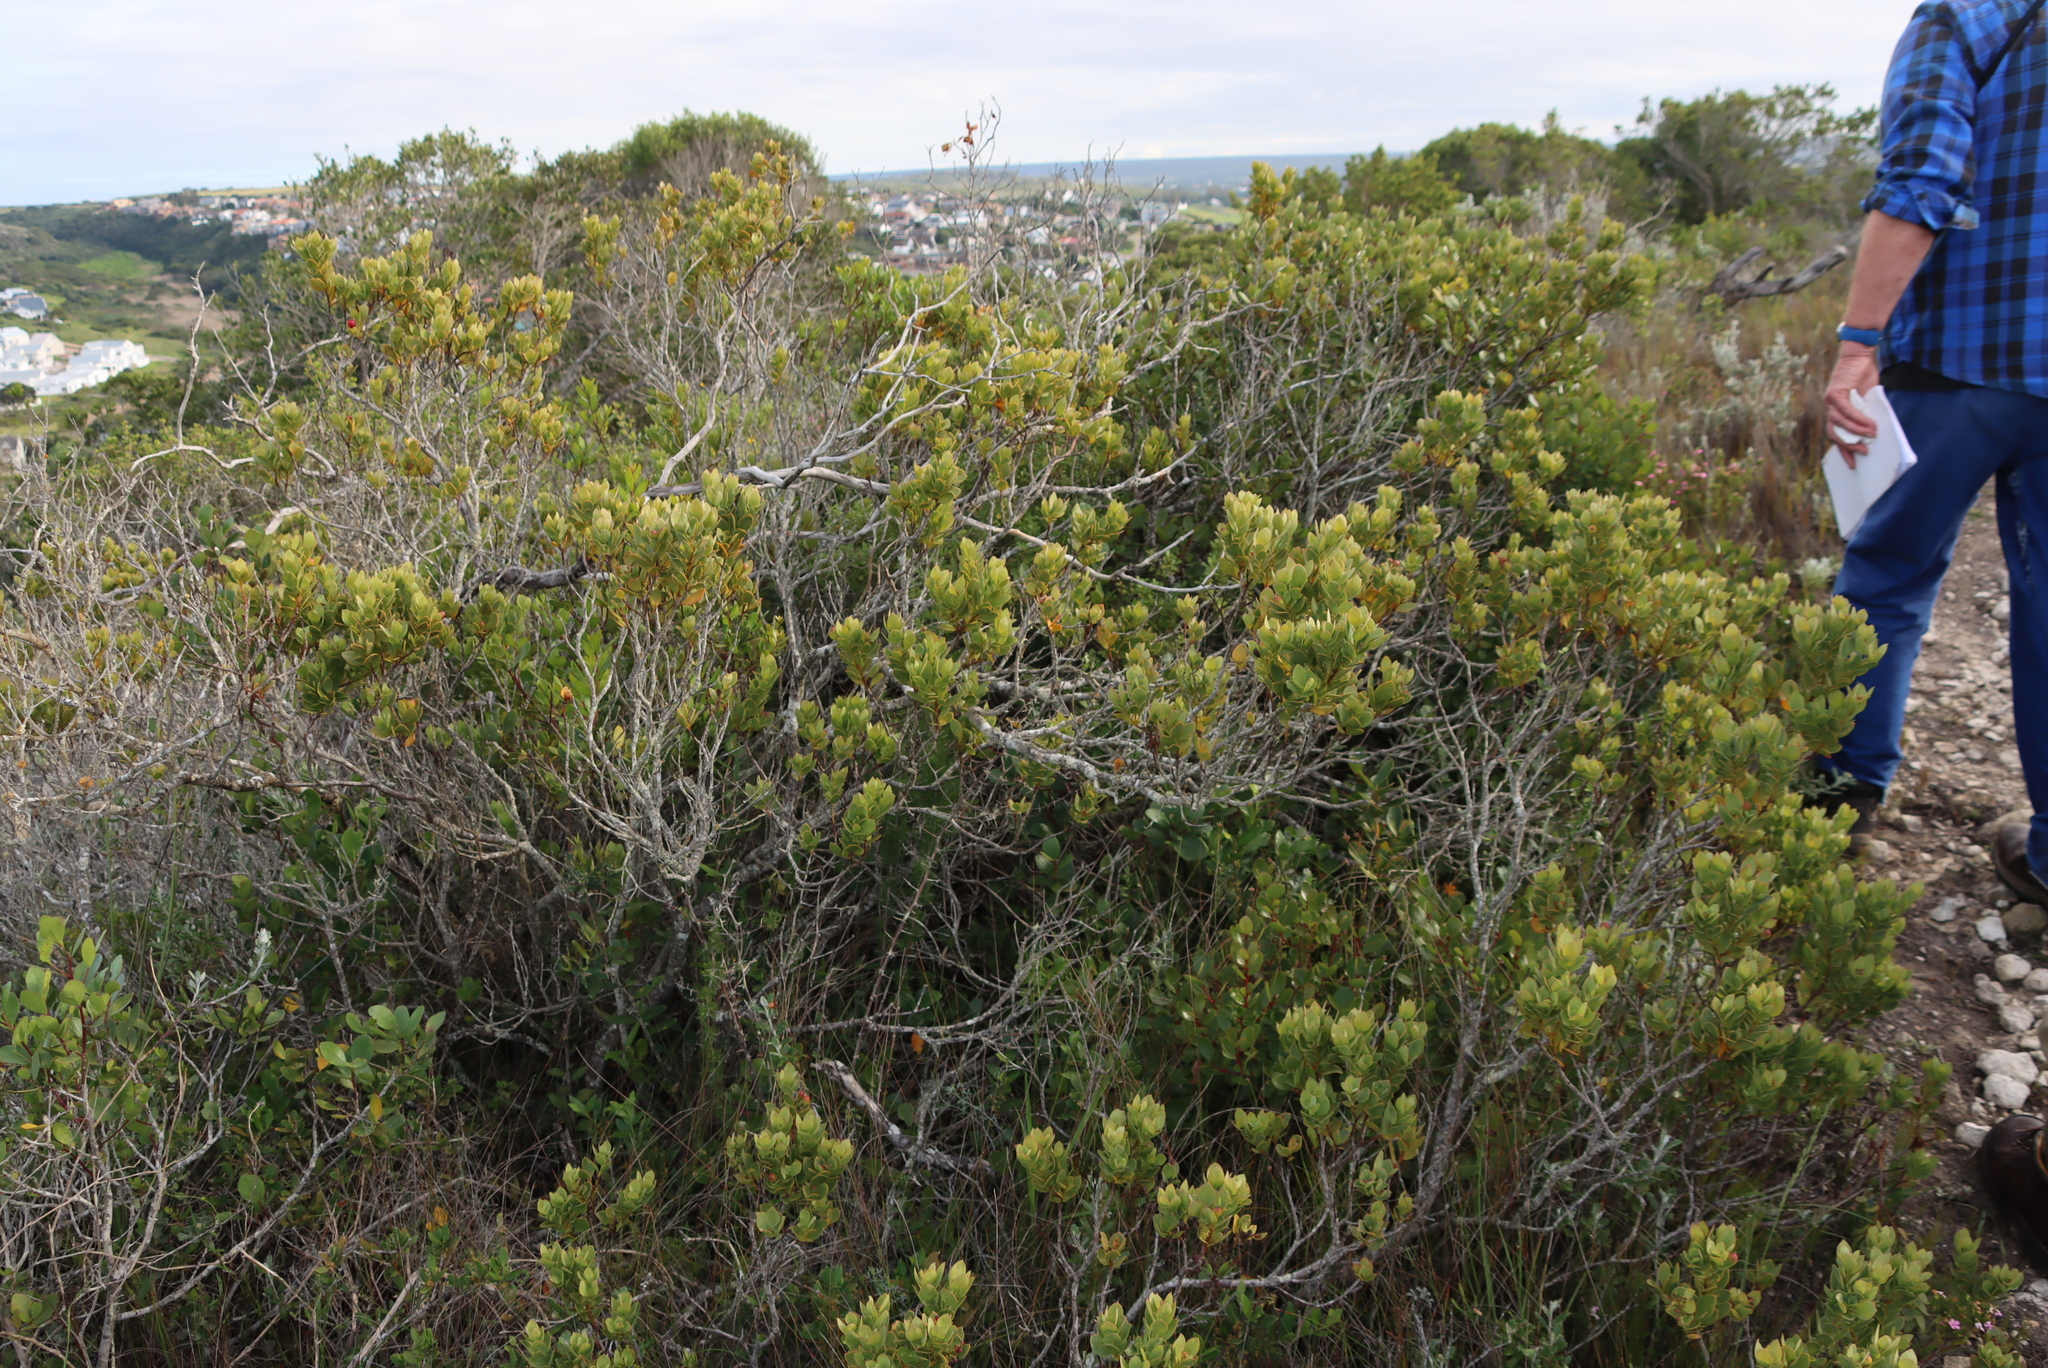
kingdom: Plantae
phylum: Tracheophyta
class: Magnoliopsida
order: Santalales
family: Santalaceae
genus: Osyris
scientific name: Osyris compressa
